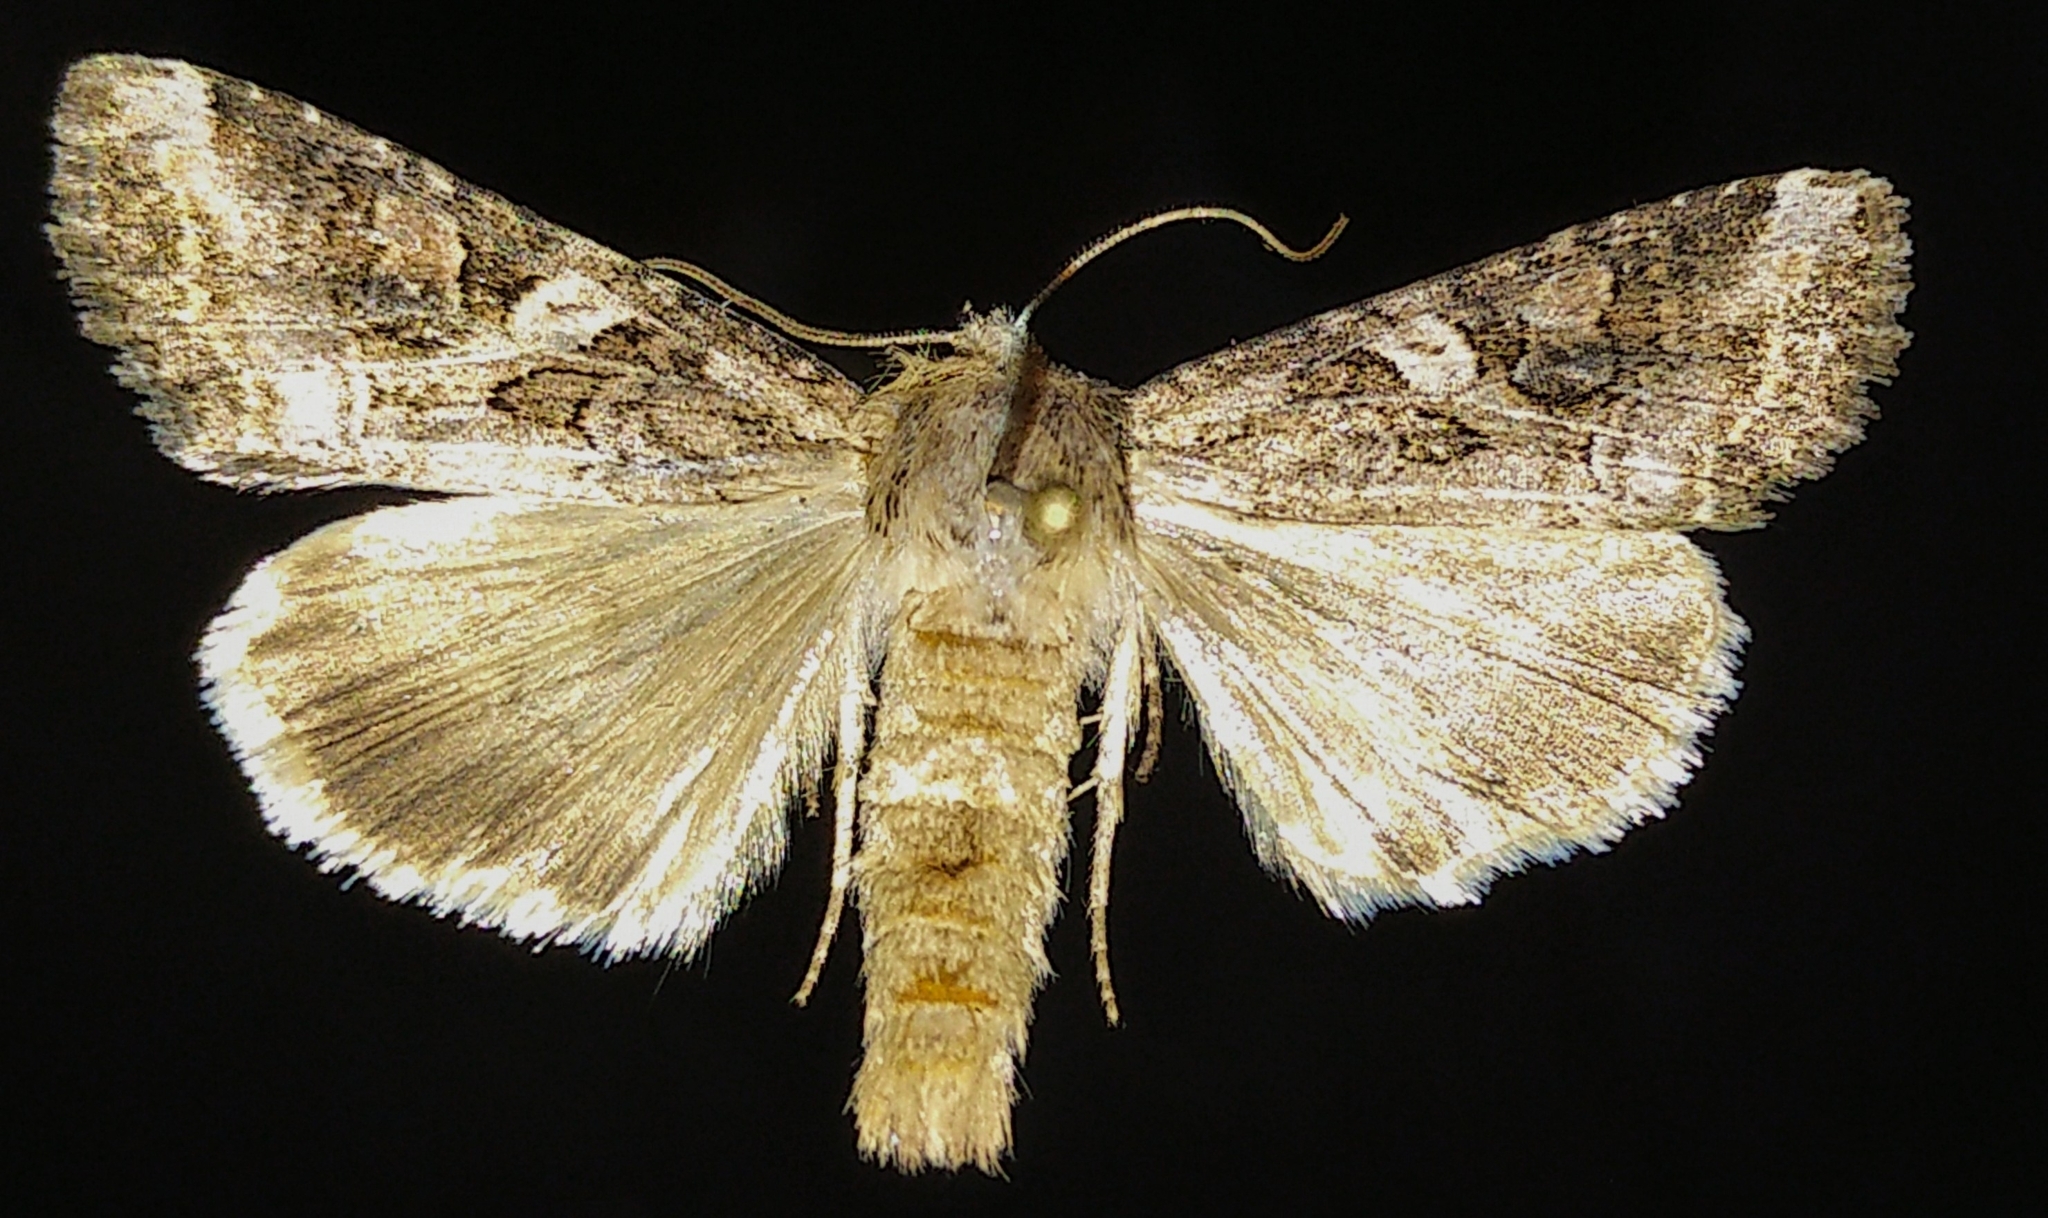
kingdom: Animalia
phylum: Arthropoda
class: Insecta
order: Lepidoptera
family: Noctuidae
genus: Trichordestra
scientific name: Trichordestra liquida
